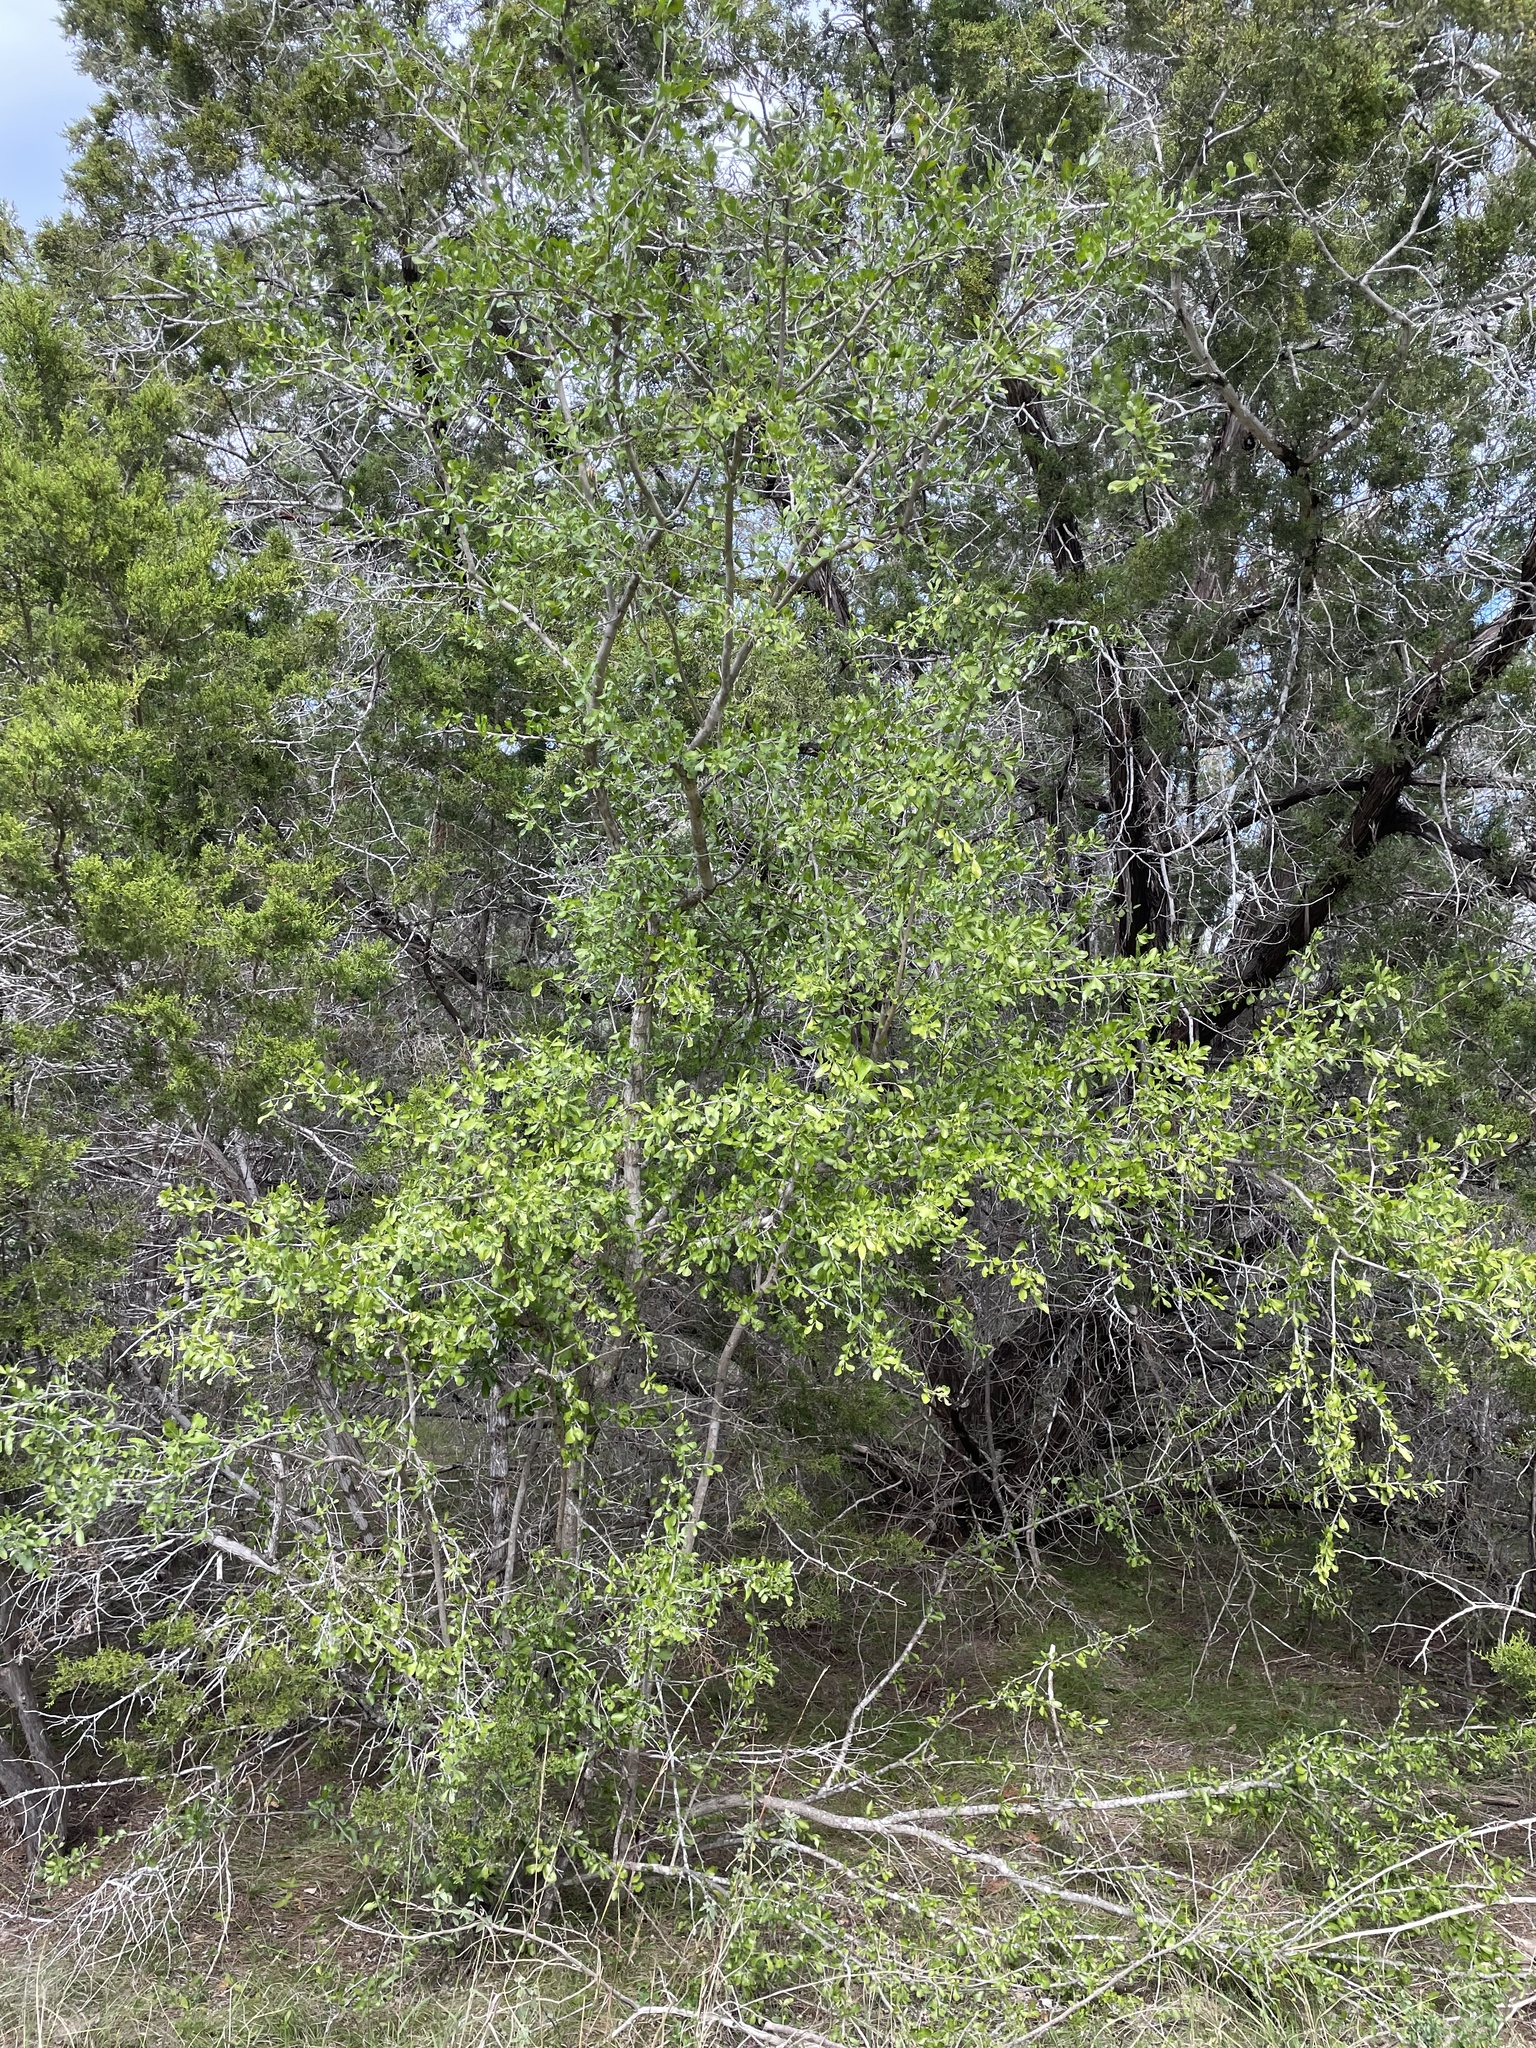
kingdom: Plantae
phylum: Tracheophyta
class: Magnoliopsida
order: Rosales
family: Rhamnaceae
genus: Condalia
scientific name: Condalia hookeri
